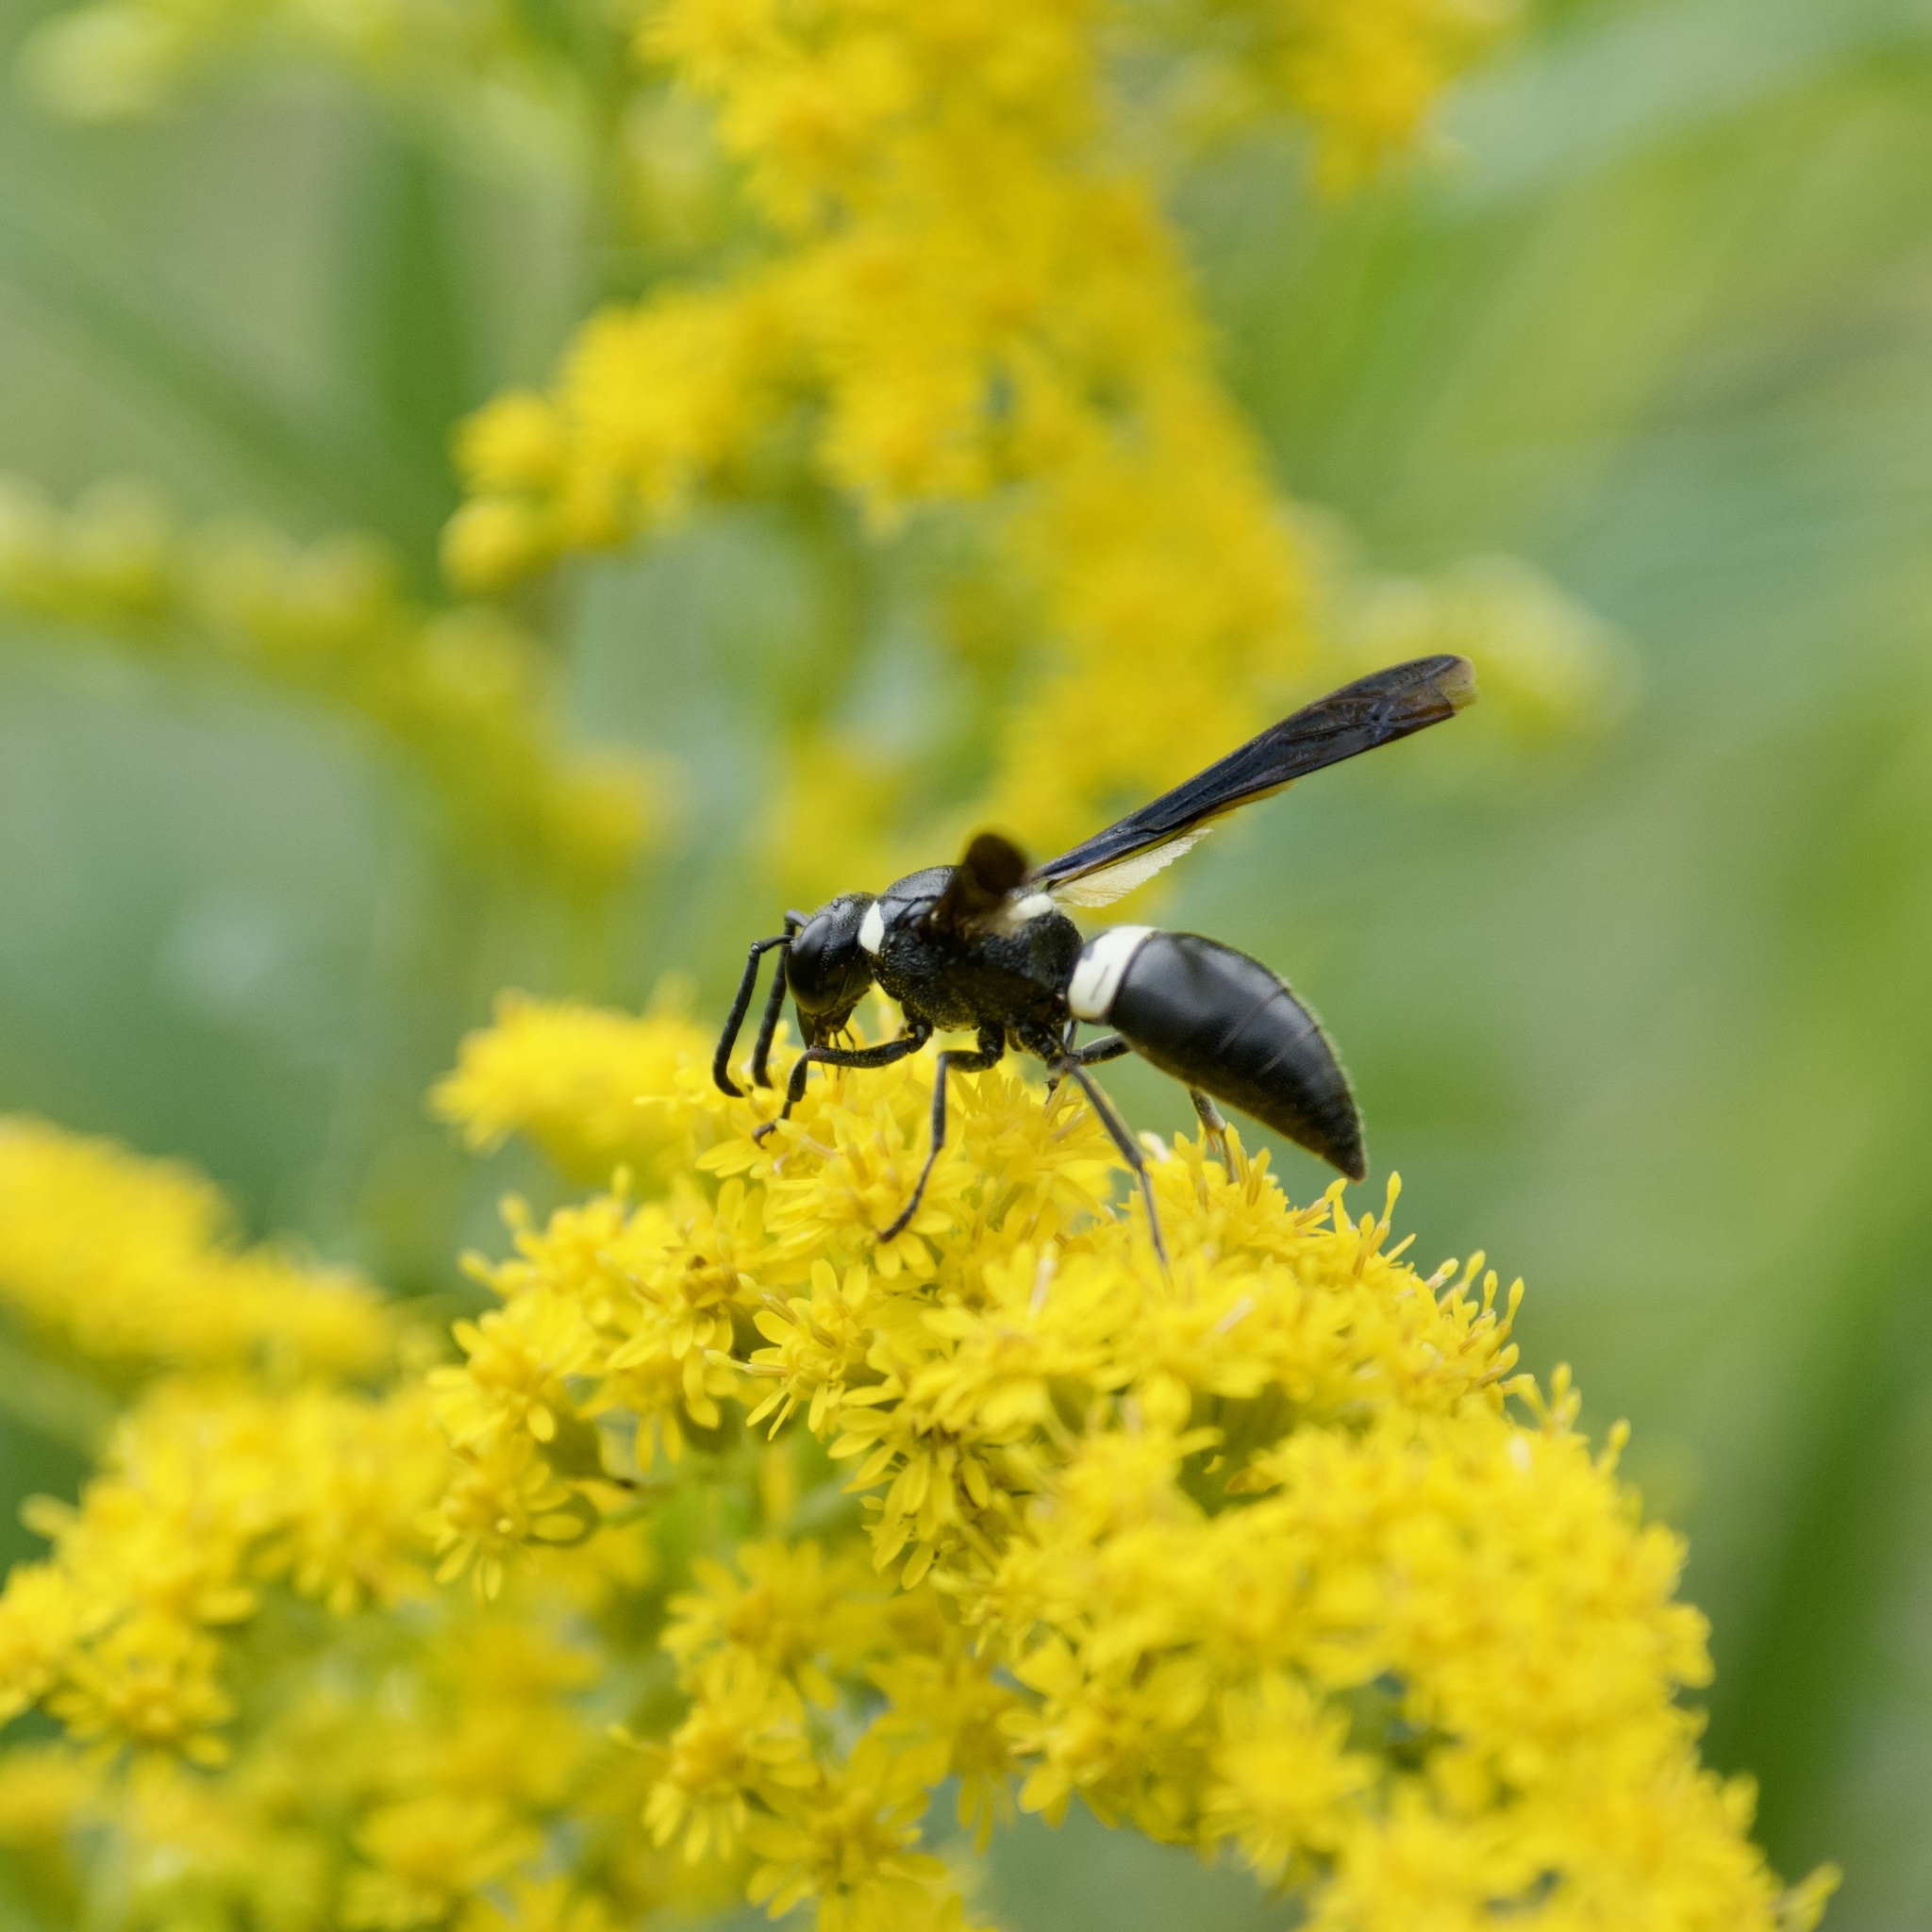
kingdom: Animalia
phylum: Arthropoda
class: Insecta
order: Hymenoptera
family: Eumenidae
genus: Monobia
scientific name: Monobia quadridens
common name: Four-toothed mason wasp
